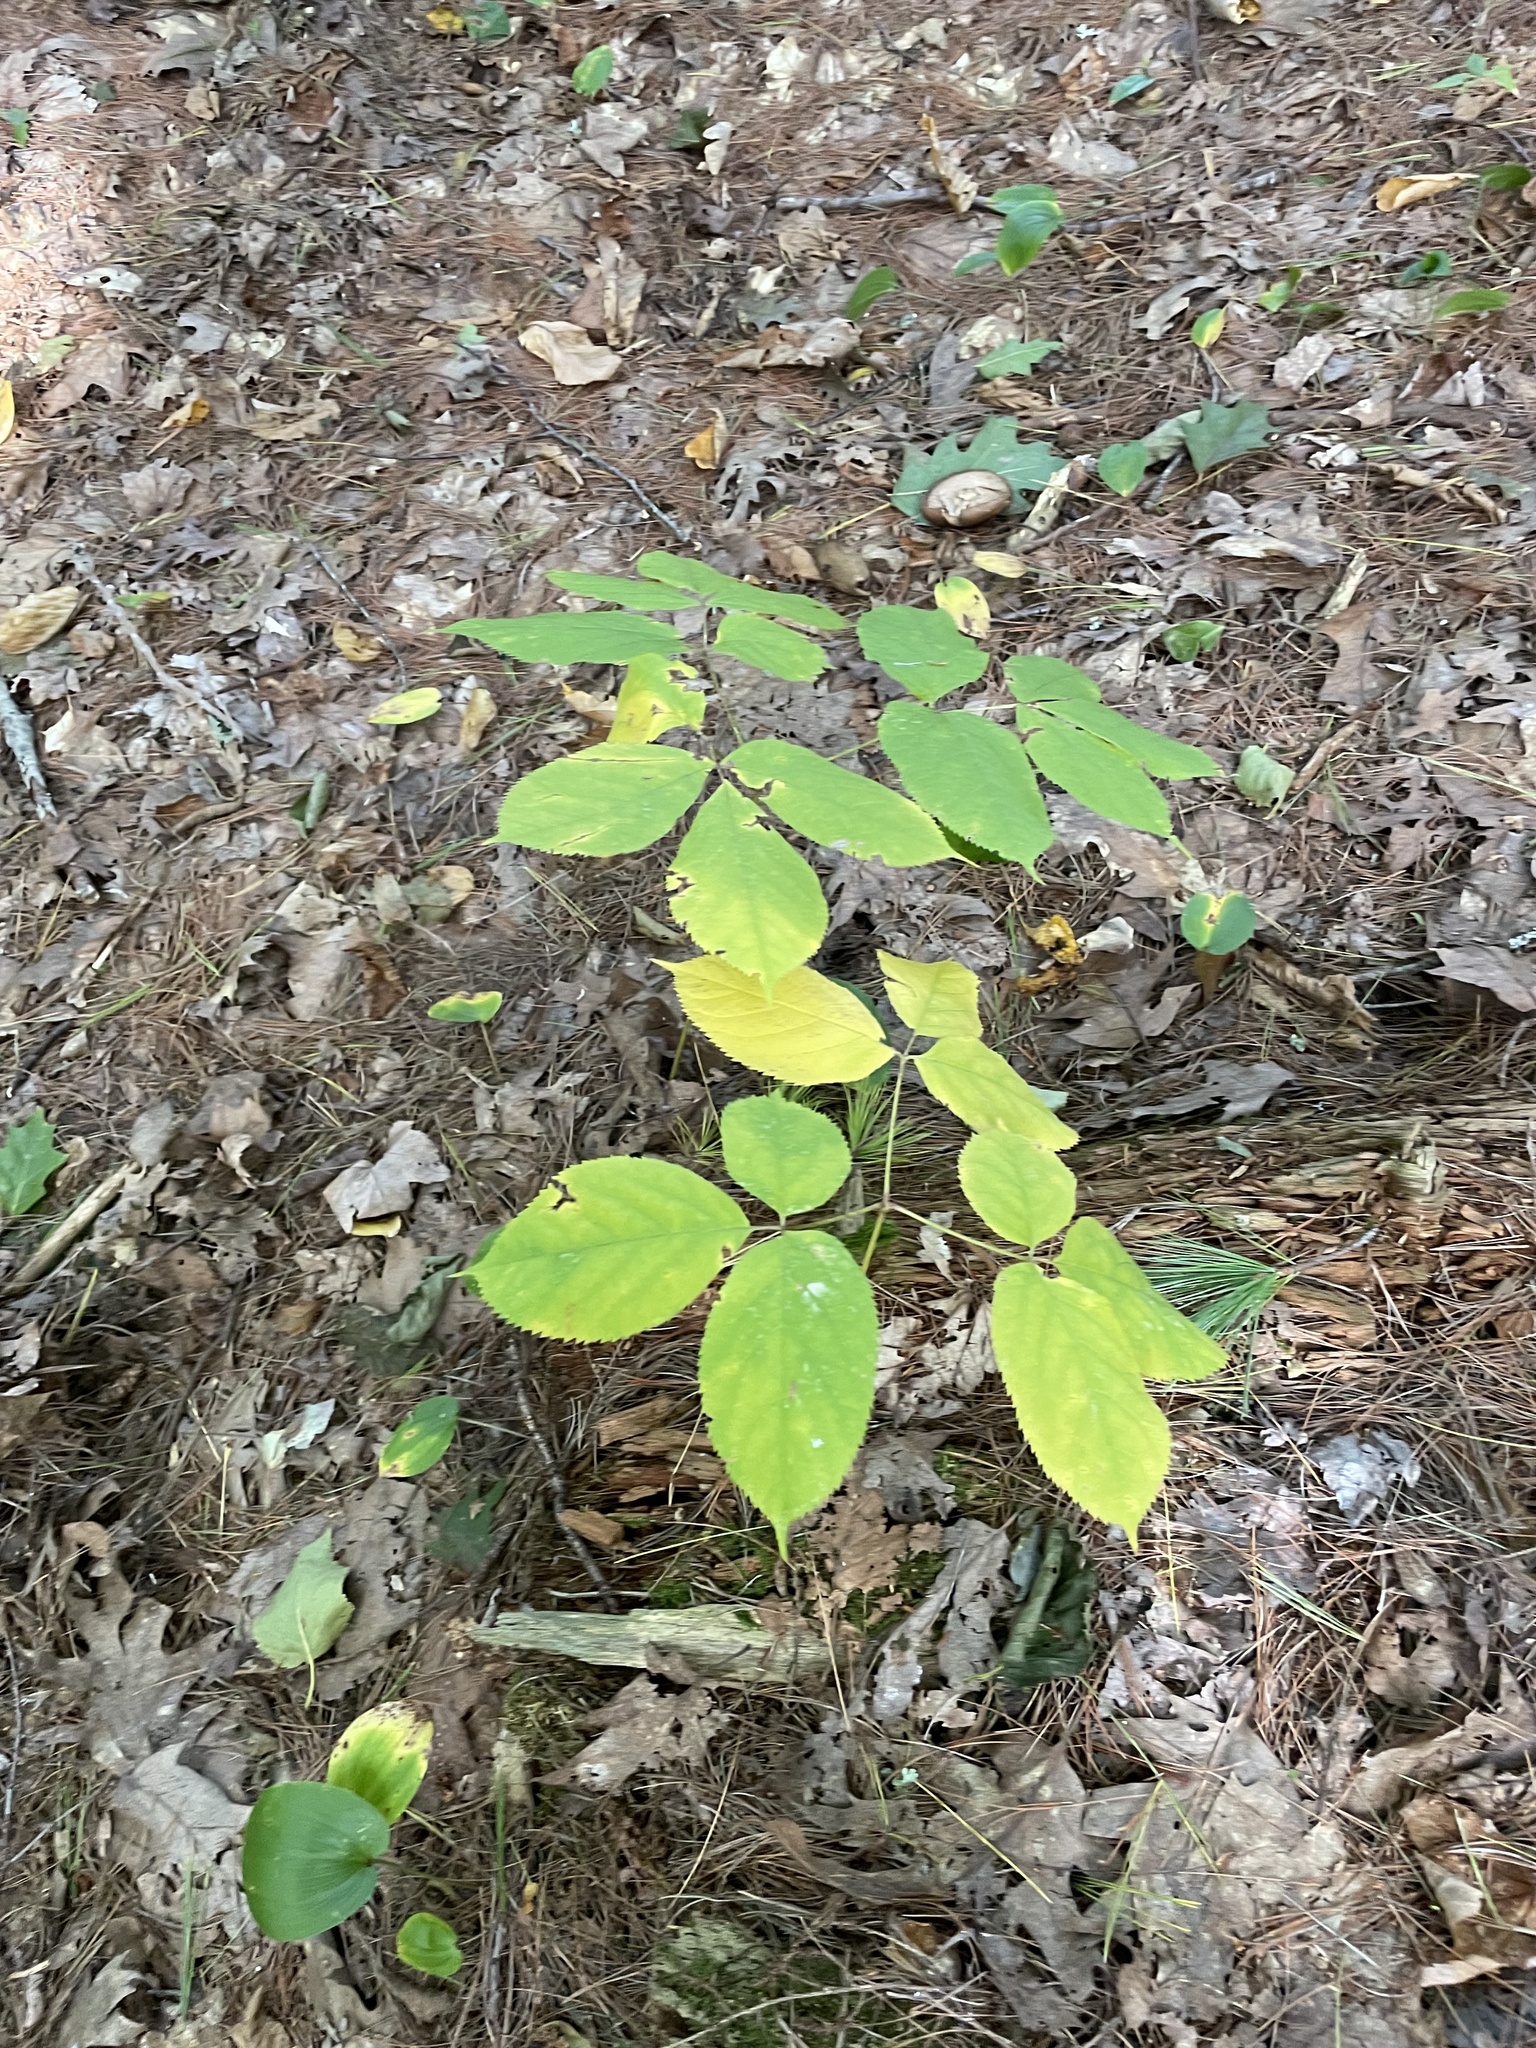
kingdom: Plantae
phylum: Tracheophyta
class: Magnoliopsida
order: Apiales
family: Araliaceae
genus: Aralia
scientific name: Aralia nudicaulis
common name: Wild sarsaparilla
